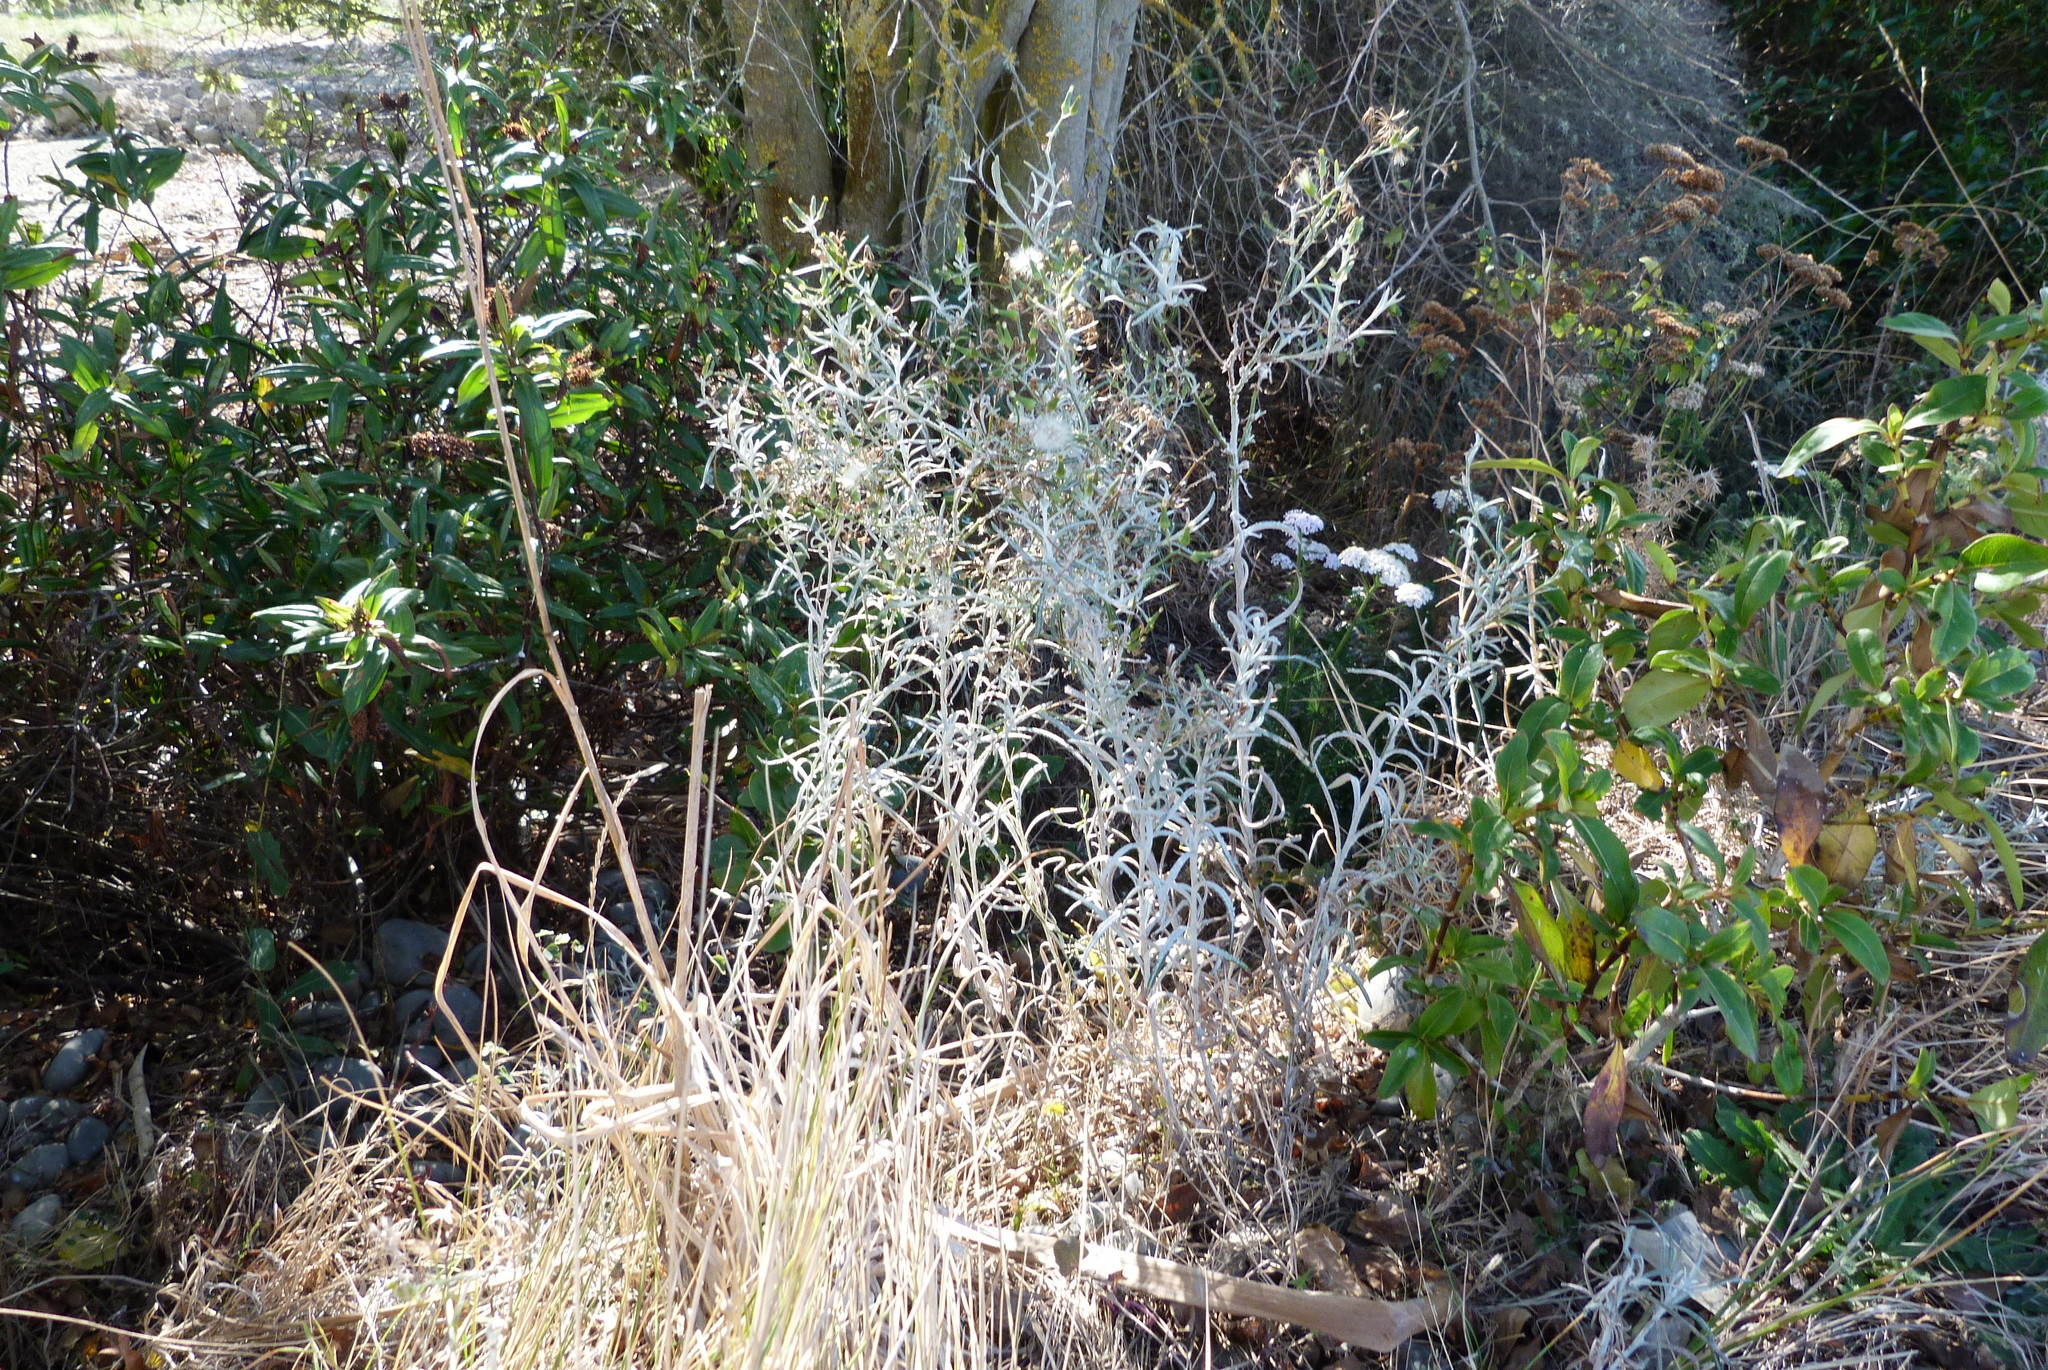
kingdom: Plantae
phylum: Tracheophyta
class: Magnoliopsida
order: Asterales
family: Asteraceae
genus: Senecio
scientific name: Senecio quadridentatus
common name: Cotton fireweed
